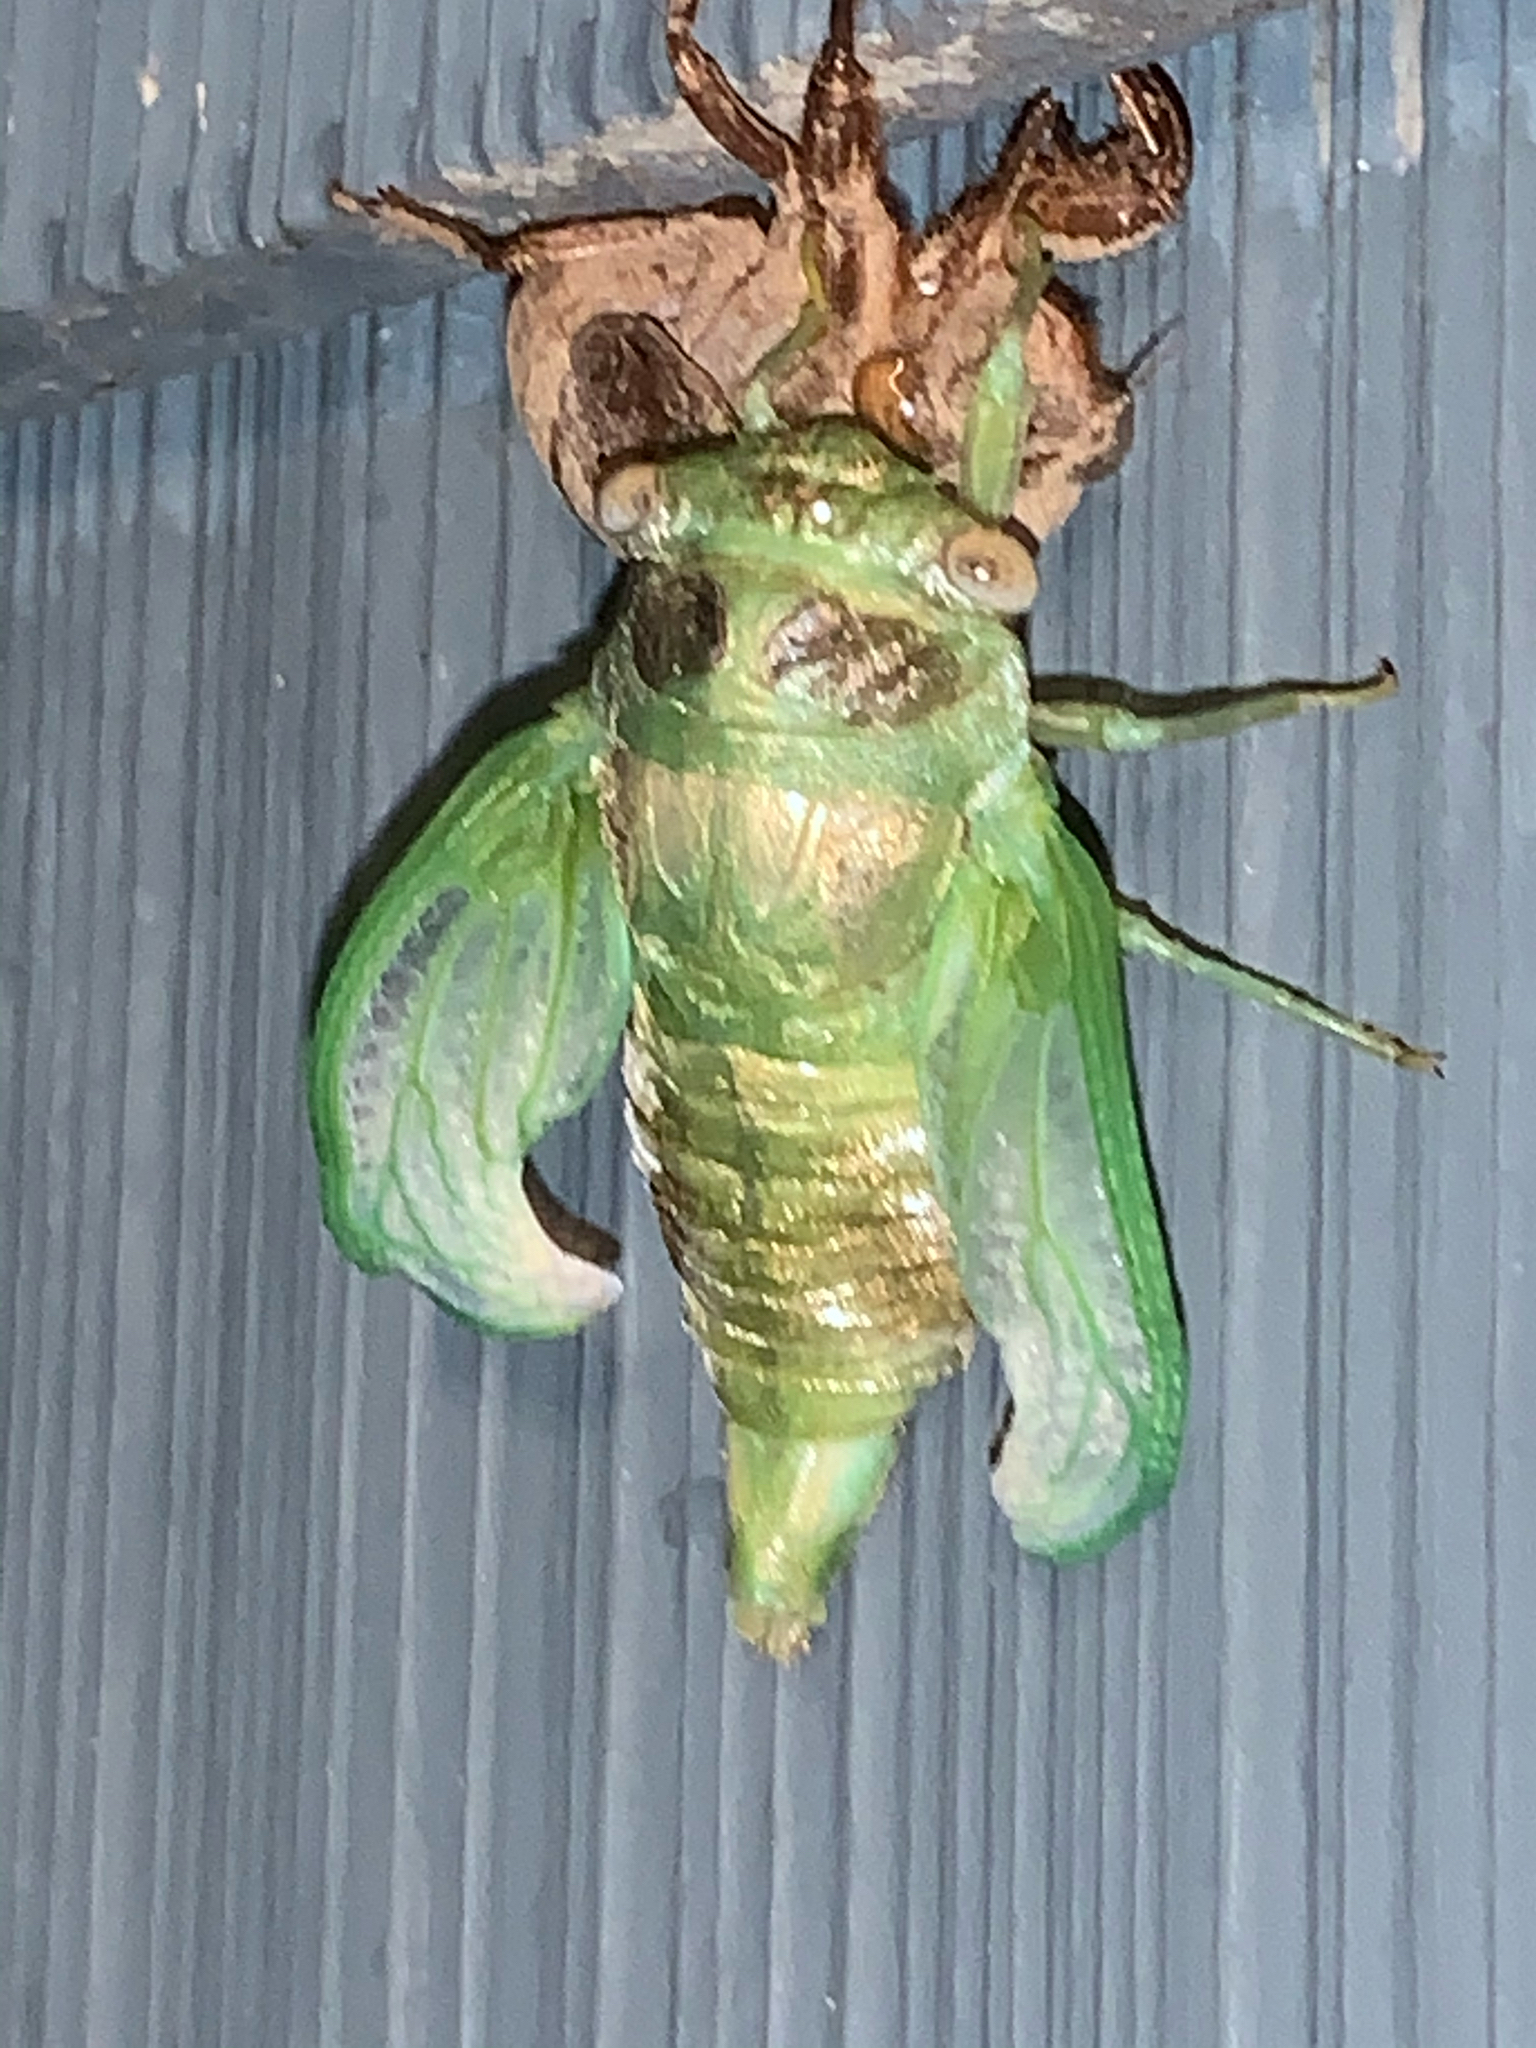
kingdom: Animalia
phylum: Arthropoda
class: Insecta
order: Hemiptera
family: Cicadidae
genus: Diceroprocta
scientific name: Diceroprocta grossa
